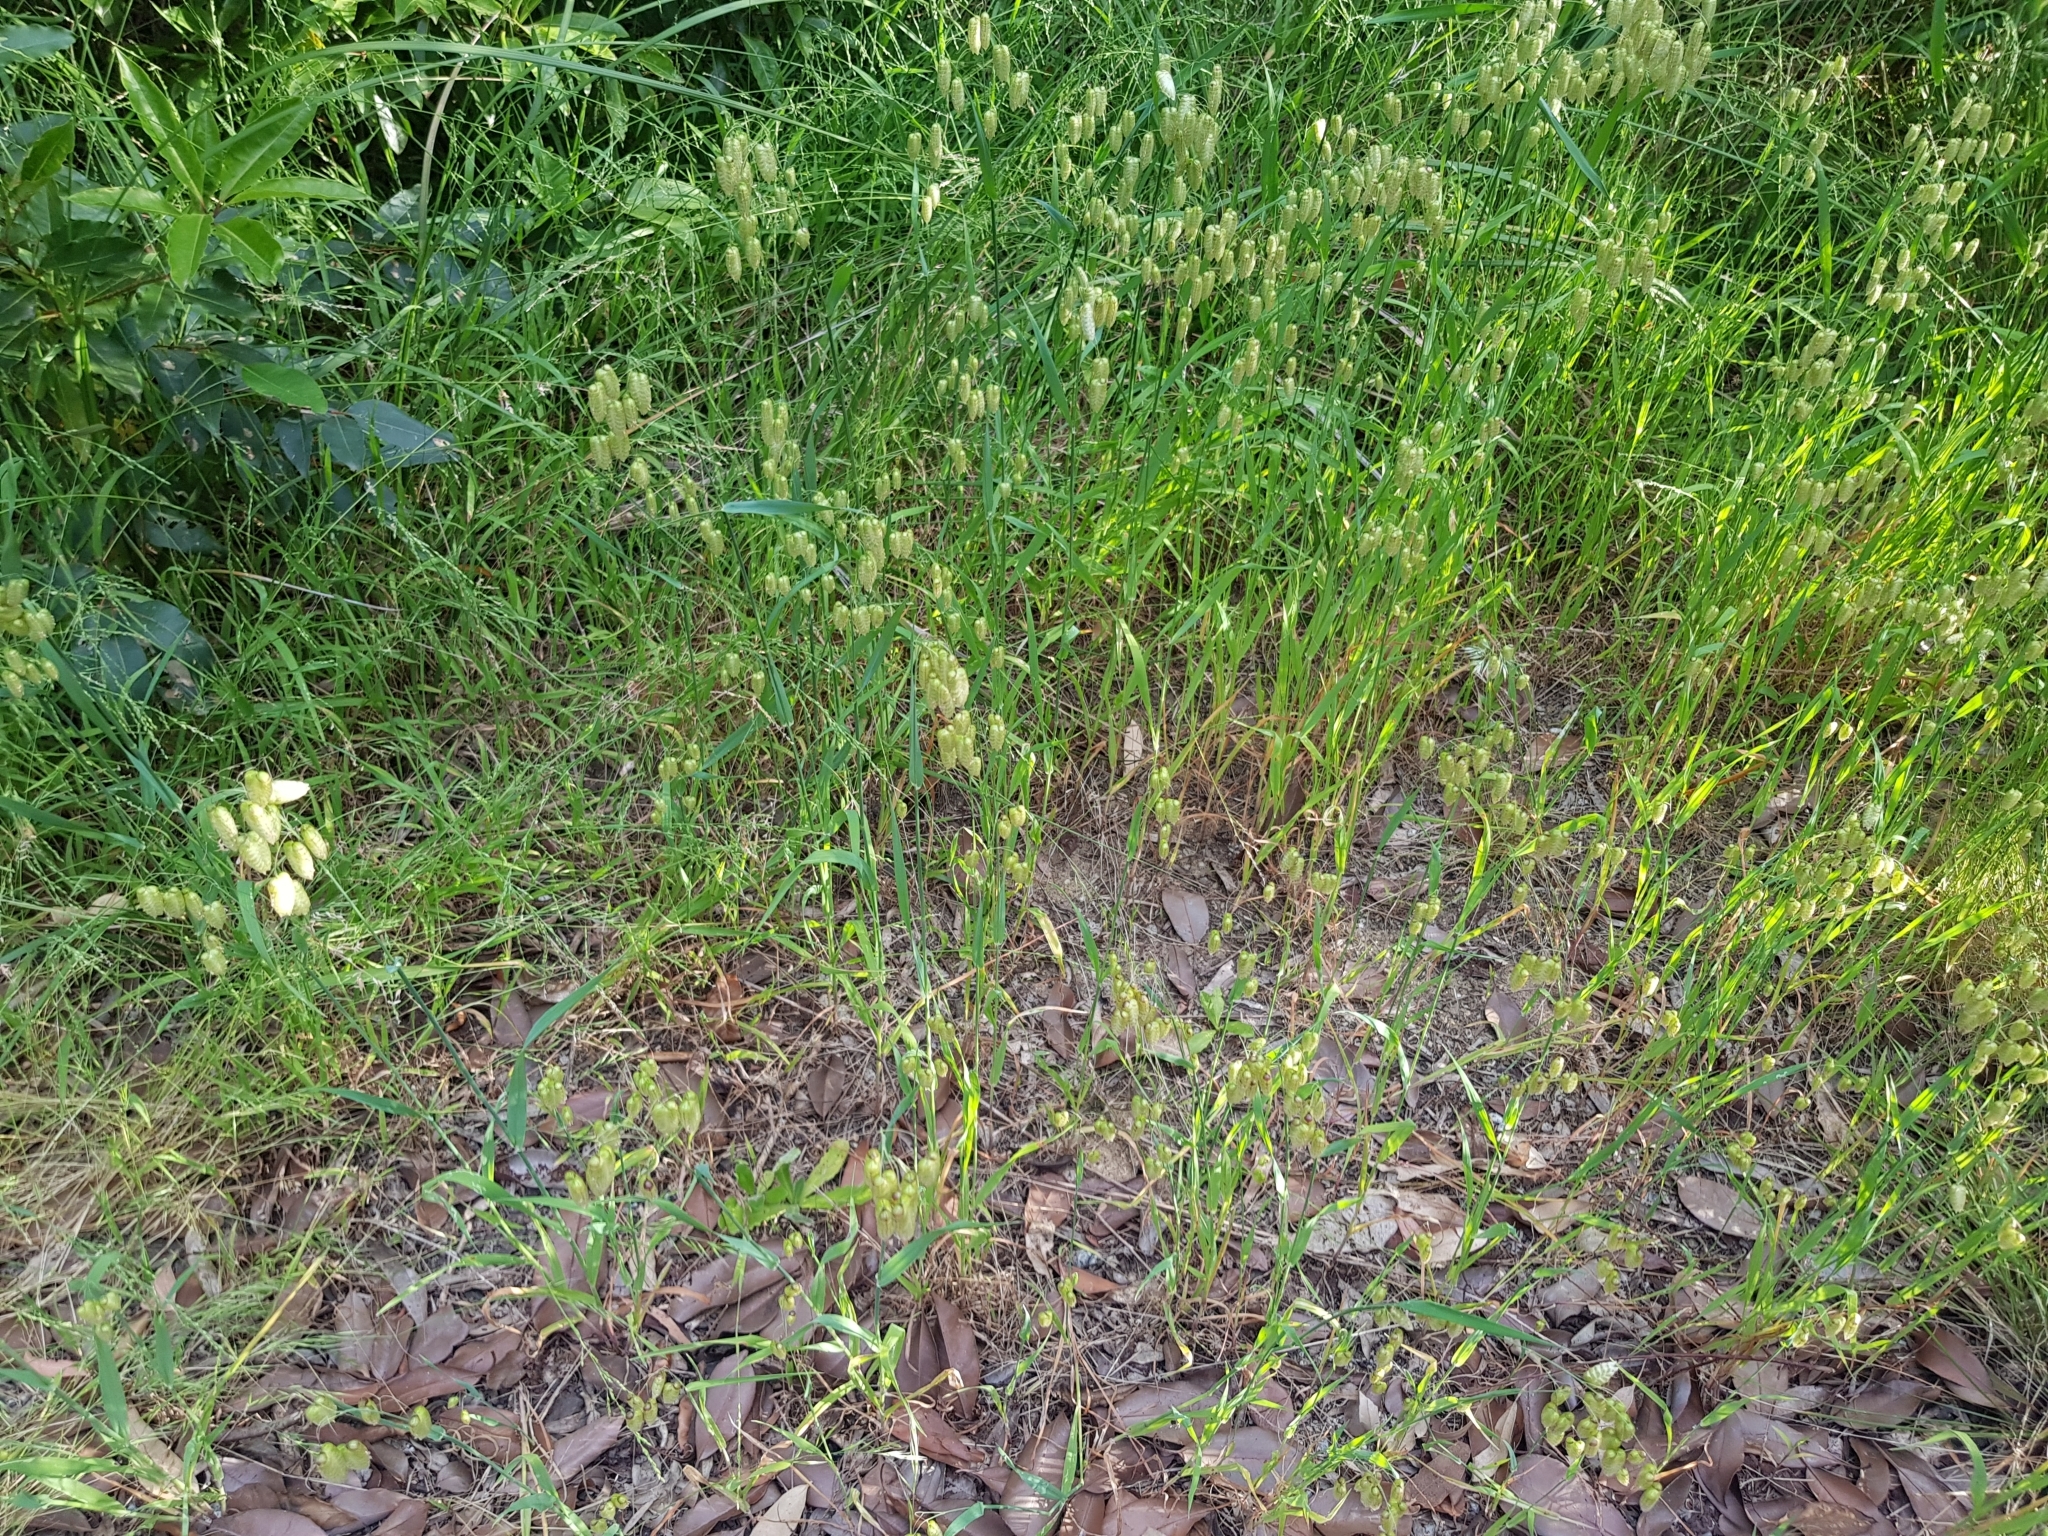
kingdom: Plantae
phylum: Tracheophyta
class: Liliopsida
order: Poales
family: Poaceae
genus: Briza
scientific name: Briza maxima
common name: Big quakinggrass
